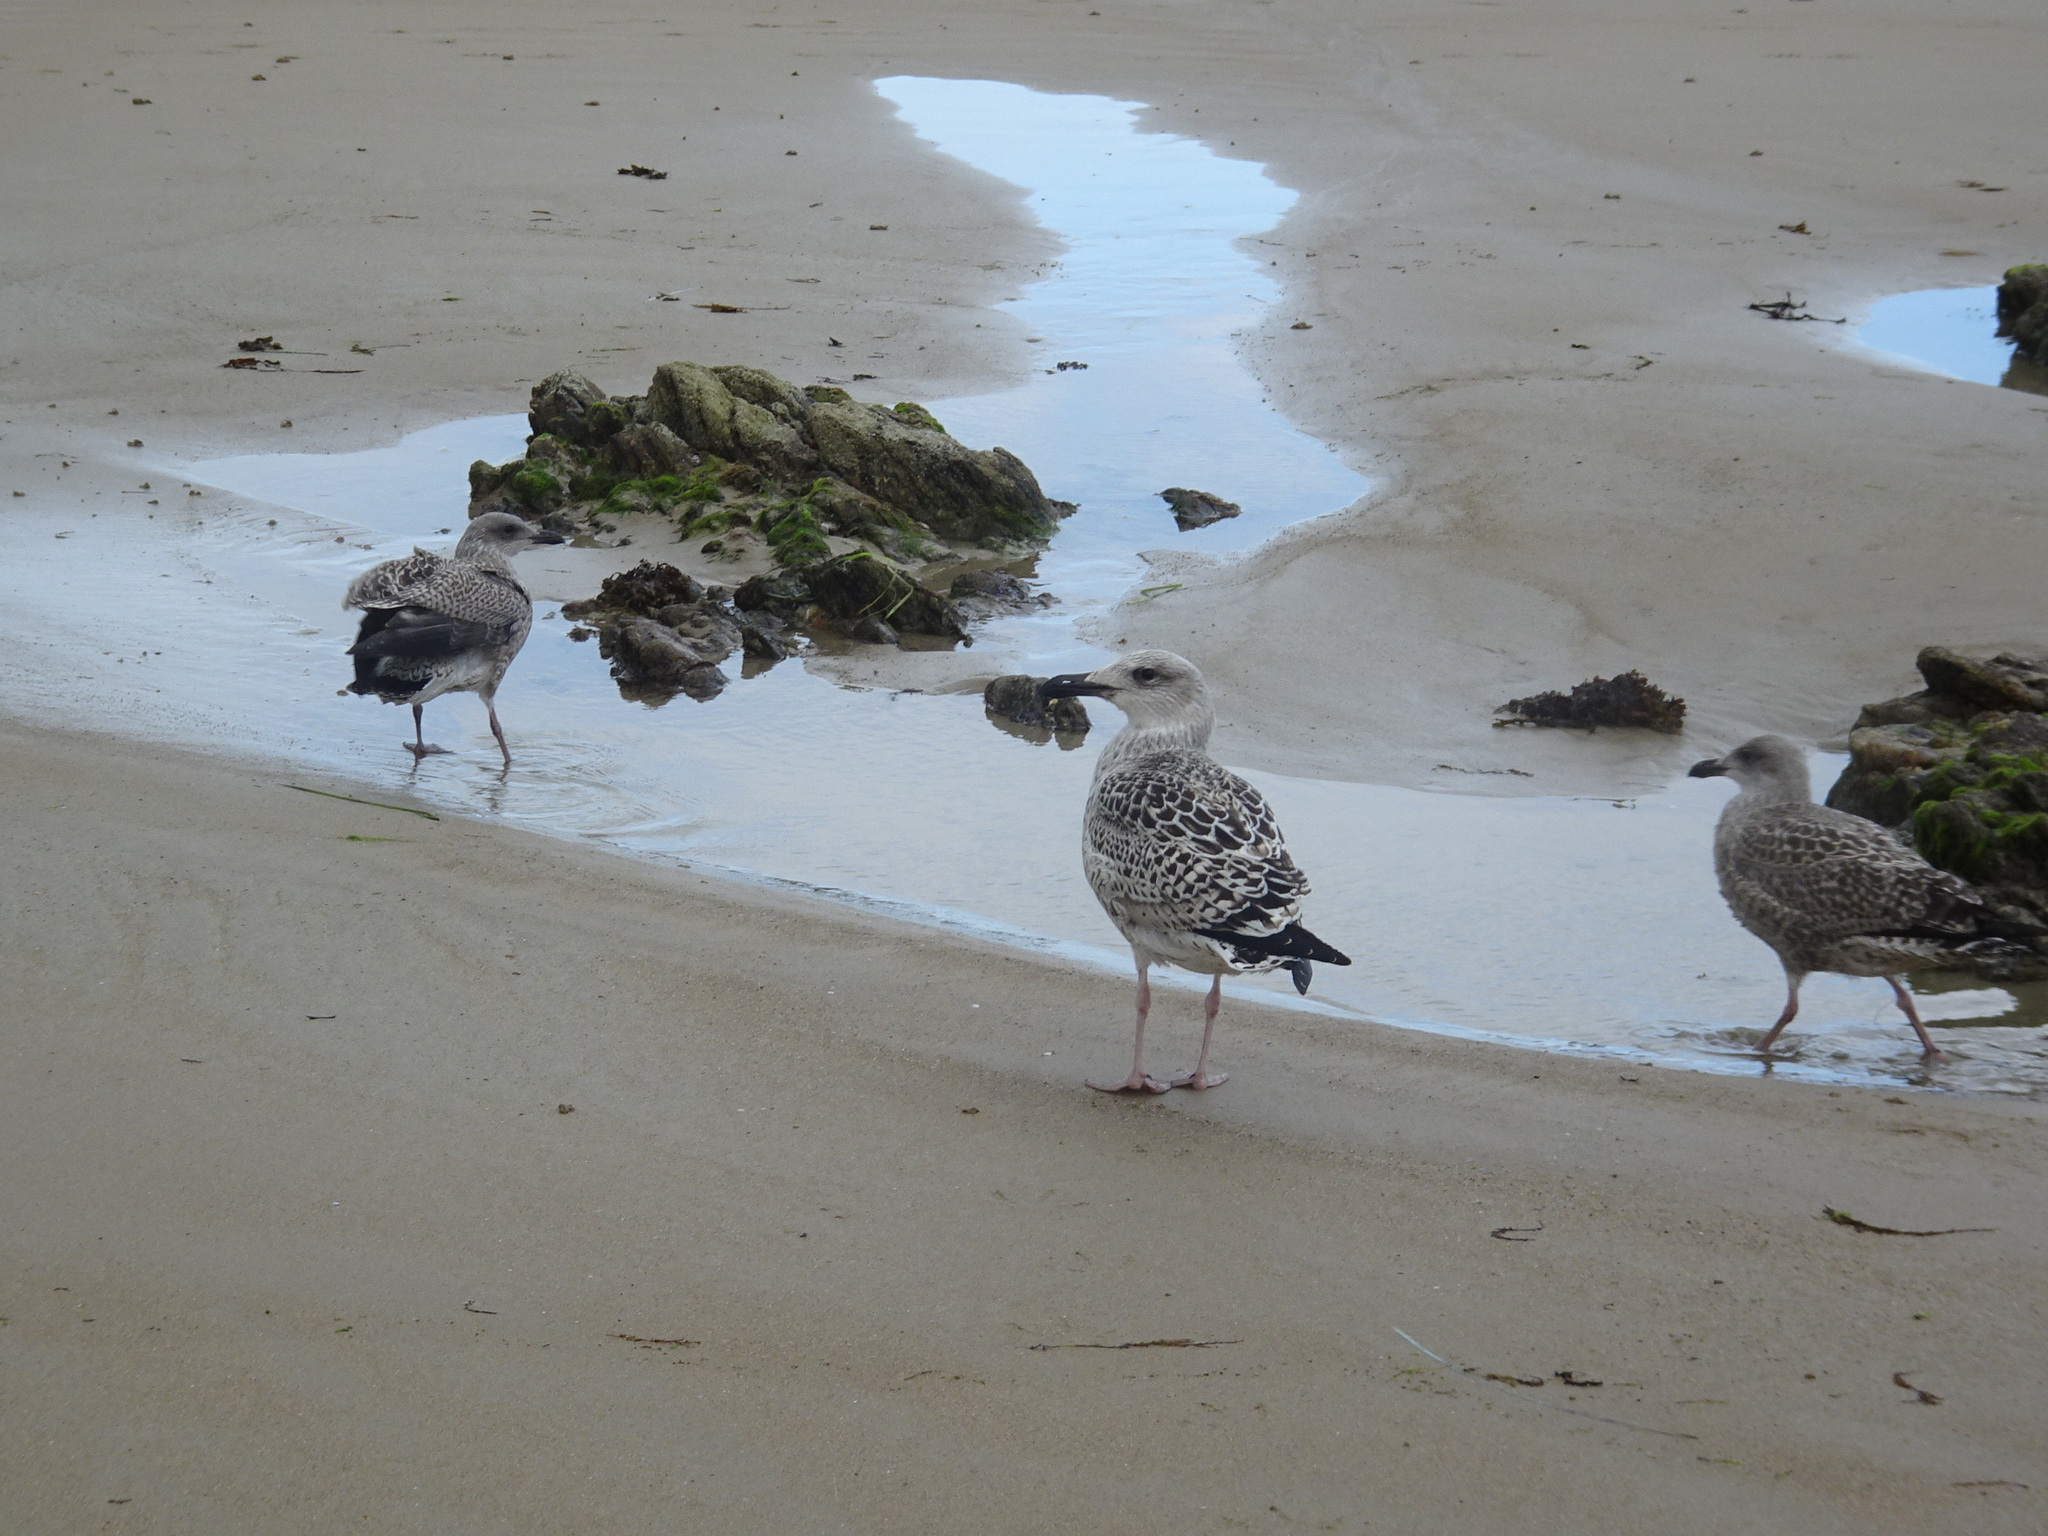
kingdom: Animalia
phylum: Chordata
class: Aves
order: Charadriiformes
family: Laridae
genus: Larus
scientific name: Larus marinus
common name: Great black-backed gull
